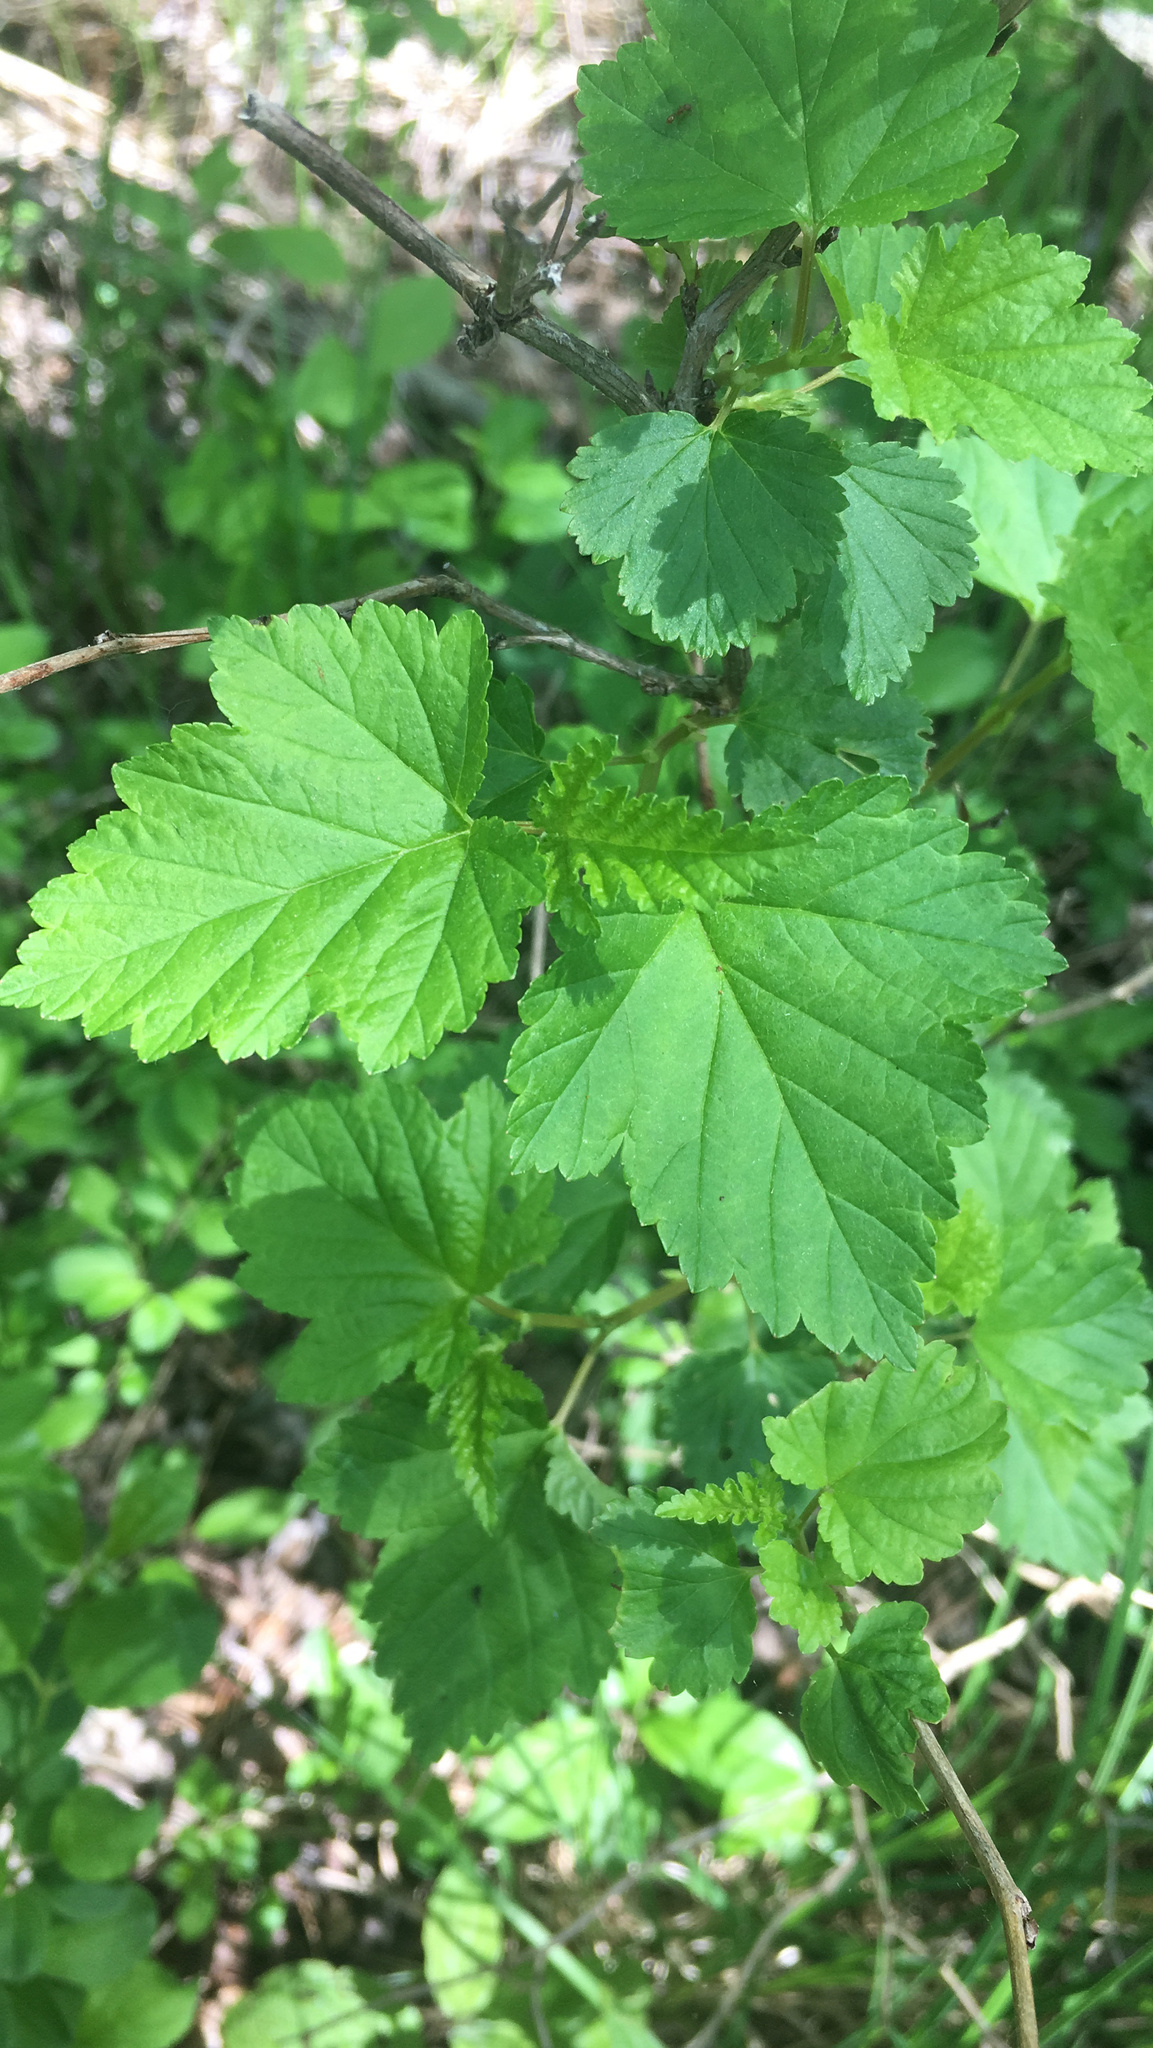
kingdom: Plantae
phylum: Tracheophyta
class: Magnoliopsida
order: Rosales
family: Rosaceae
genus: Physocarpus
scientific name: Physocarpus opulifolius
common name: Ninebark
